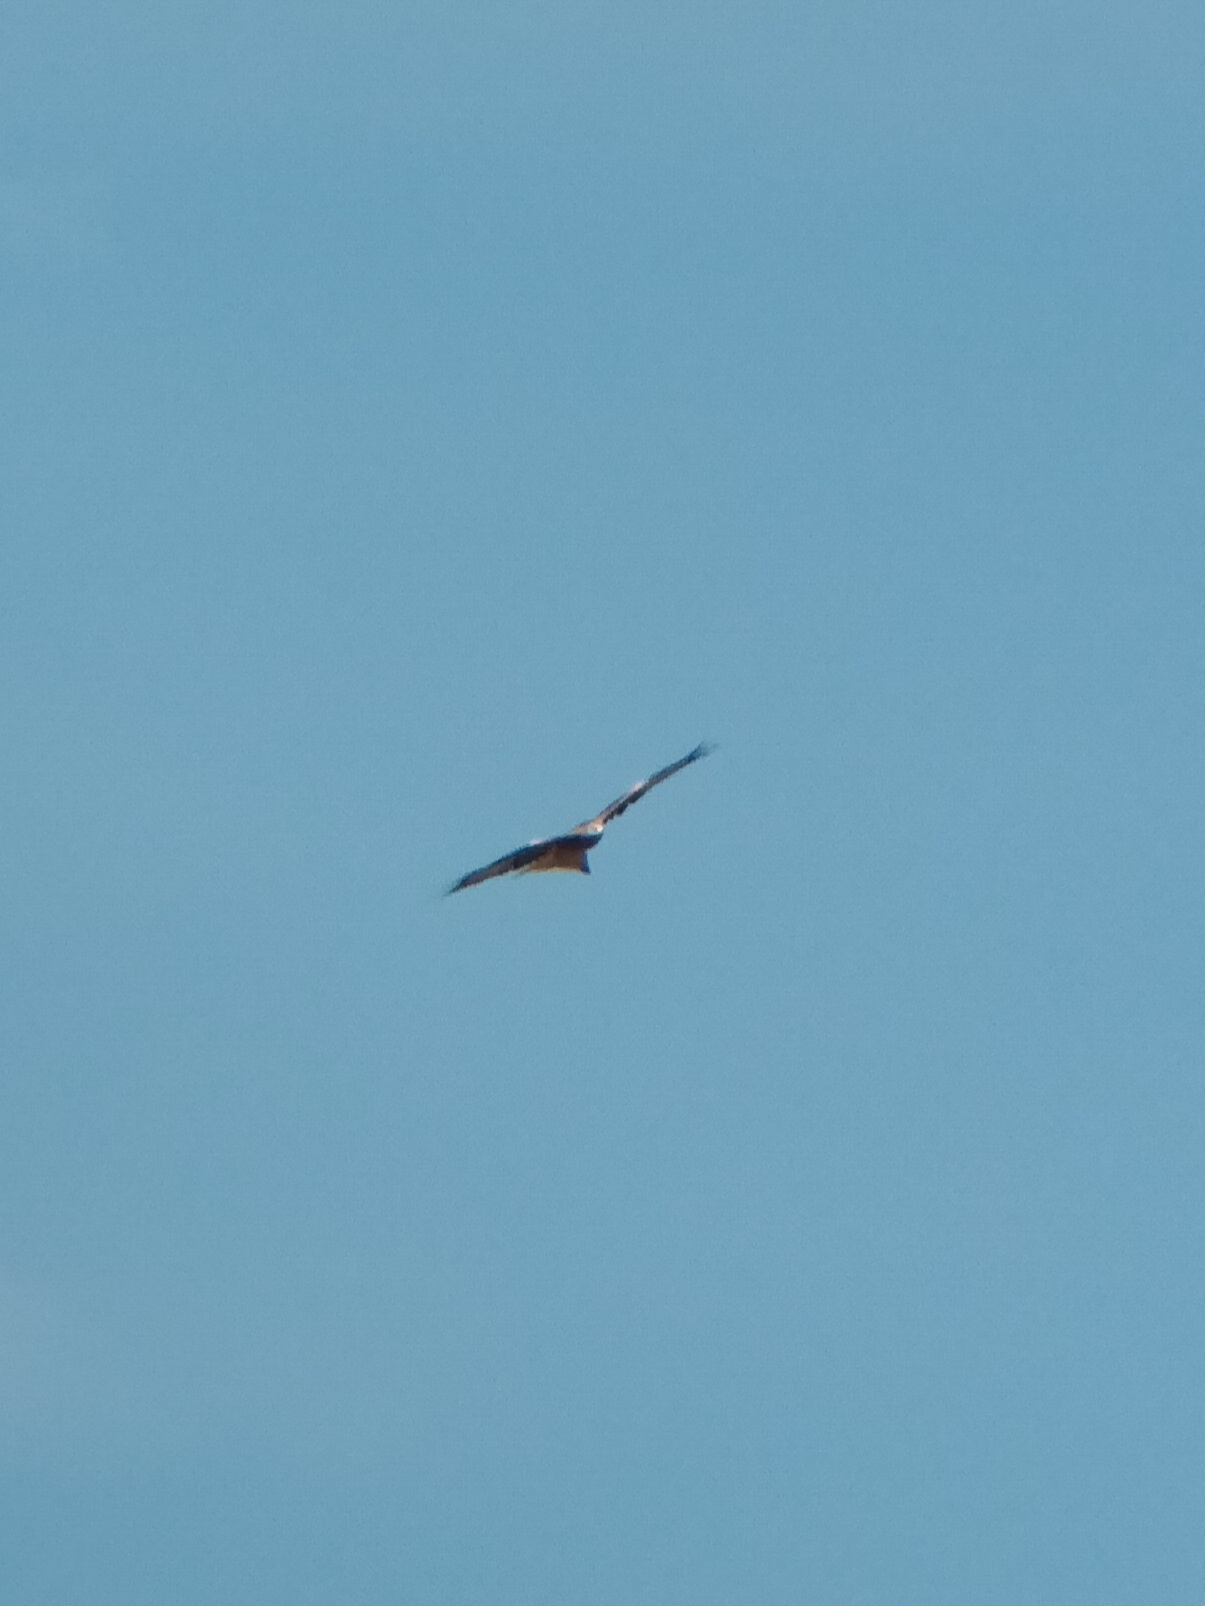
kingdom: Animalia
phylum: Chordata
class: Aves
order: Accipitriformes
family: Accipitridae
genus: Milvus
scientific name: Milvus milvus
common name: Red kite
